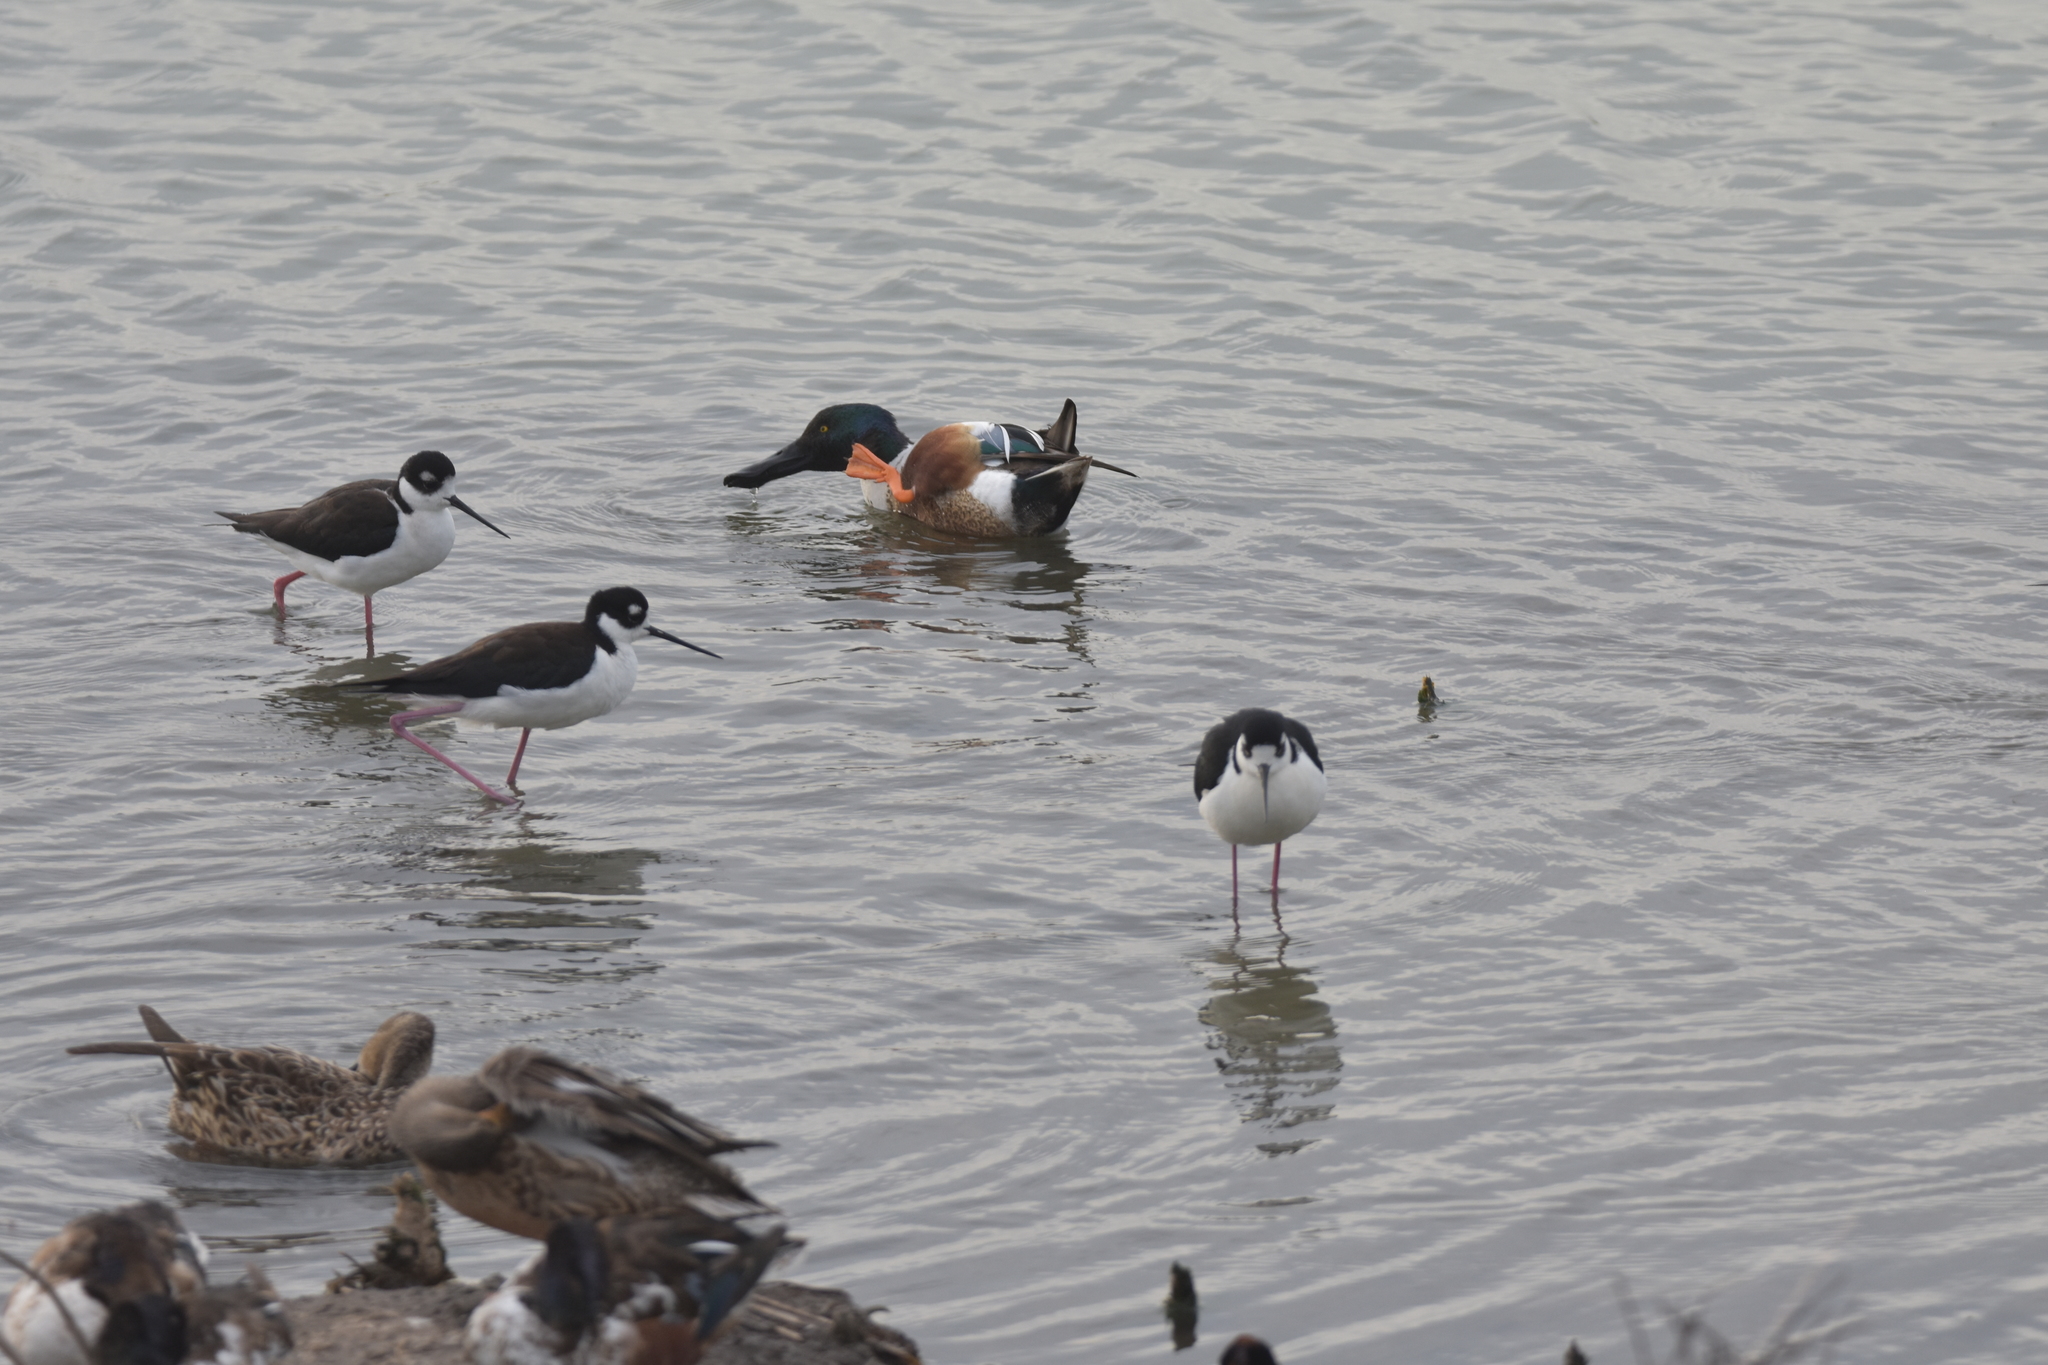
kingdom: Animalia
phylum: Chordata
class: Aves
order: Anseriformes
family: Anatidae
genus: Spatula
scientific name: Spatula clypeata
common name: Northern shoveler
